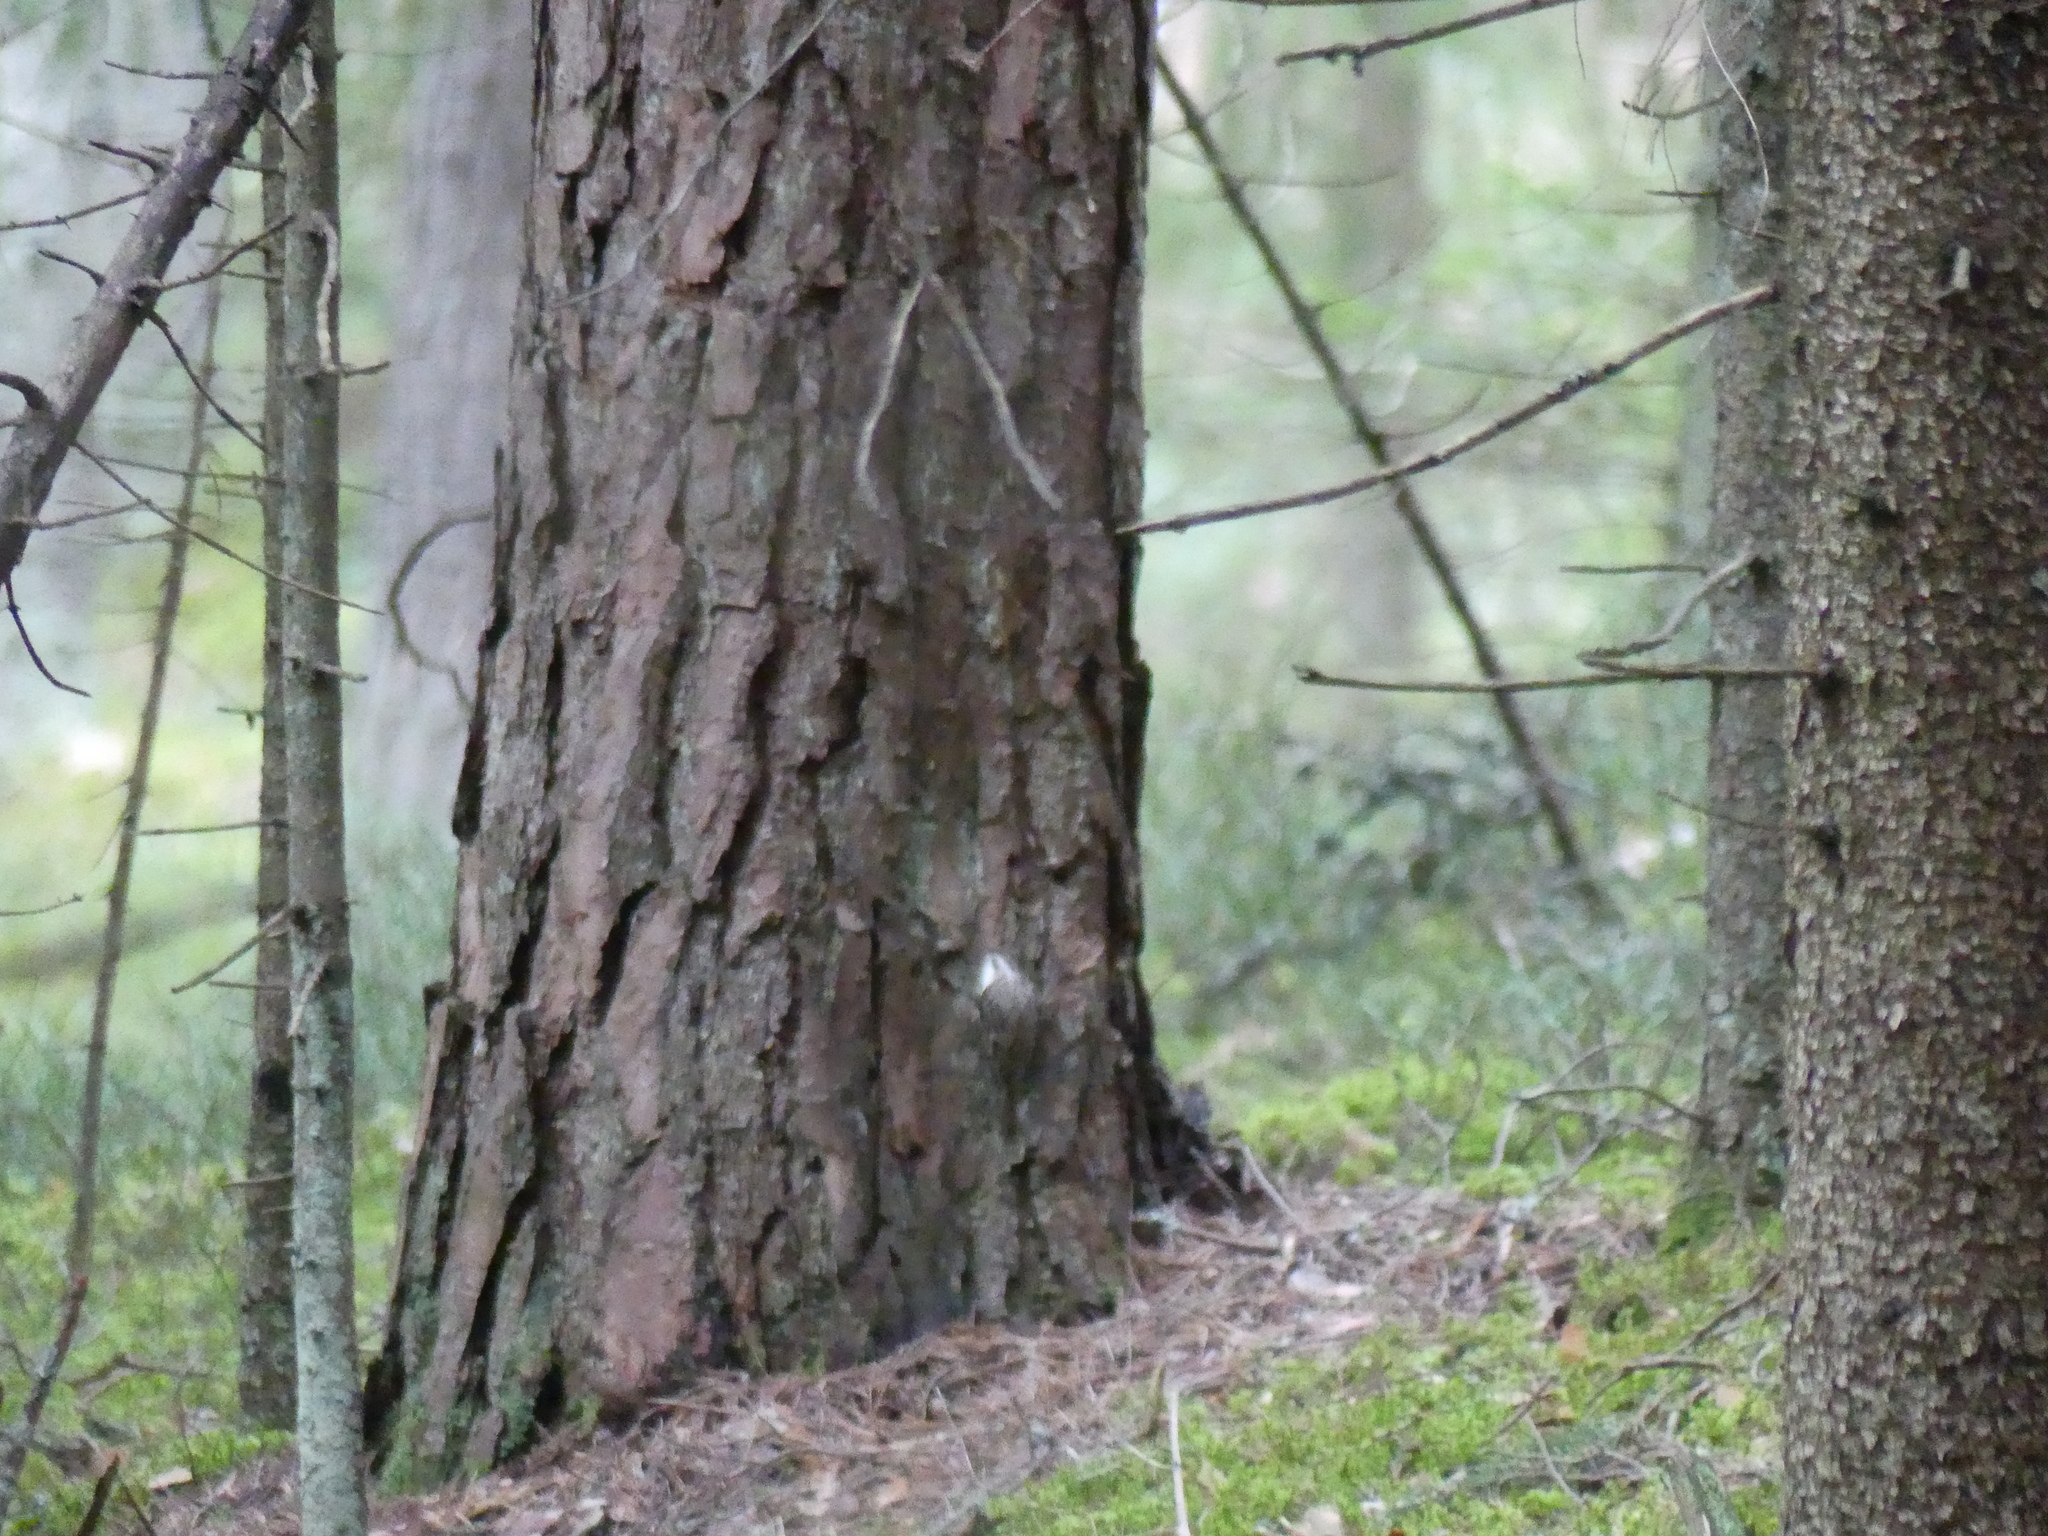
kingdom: Animalia
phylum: Chordata
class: Aves
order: Passeriformes
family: Certhiidae
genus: Certhia
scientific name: Certhia familiaris
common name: Eurasian treecreeper
